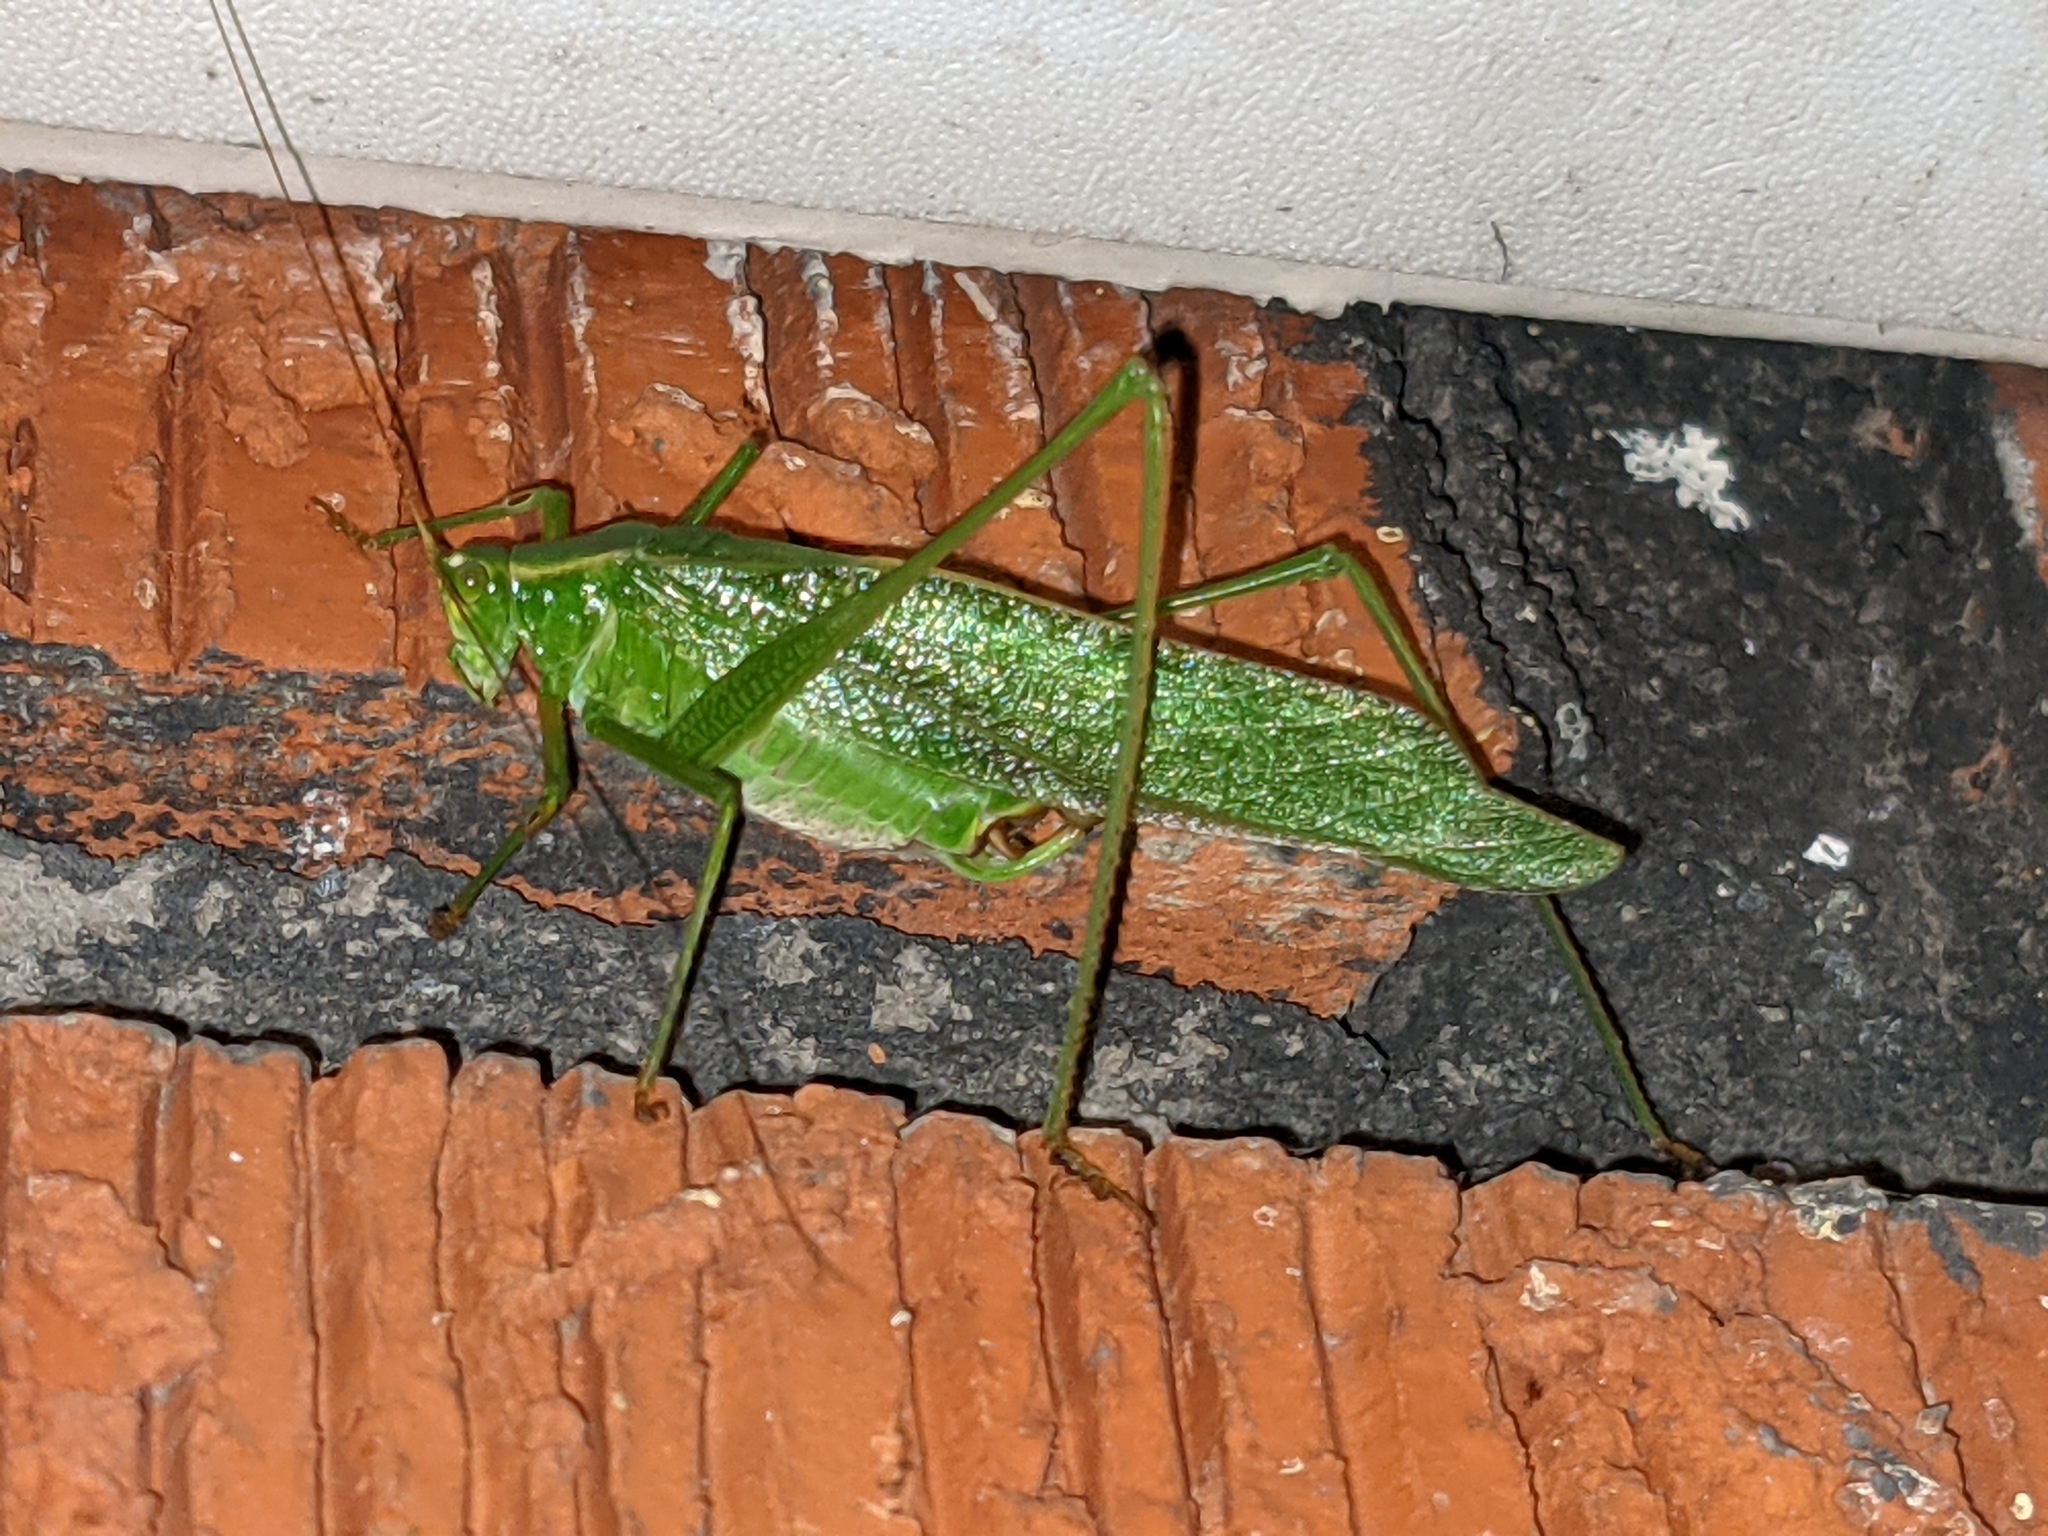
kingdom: Animalia
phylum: Arthropoda
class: Insecta
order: Orthoptera
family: Tettigoniidae
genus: Scudderia
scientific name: Scudderia furcata
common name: Fork-tailed bush katydid
